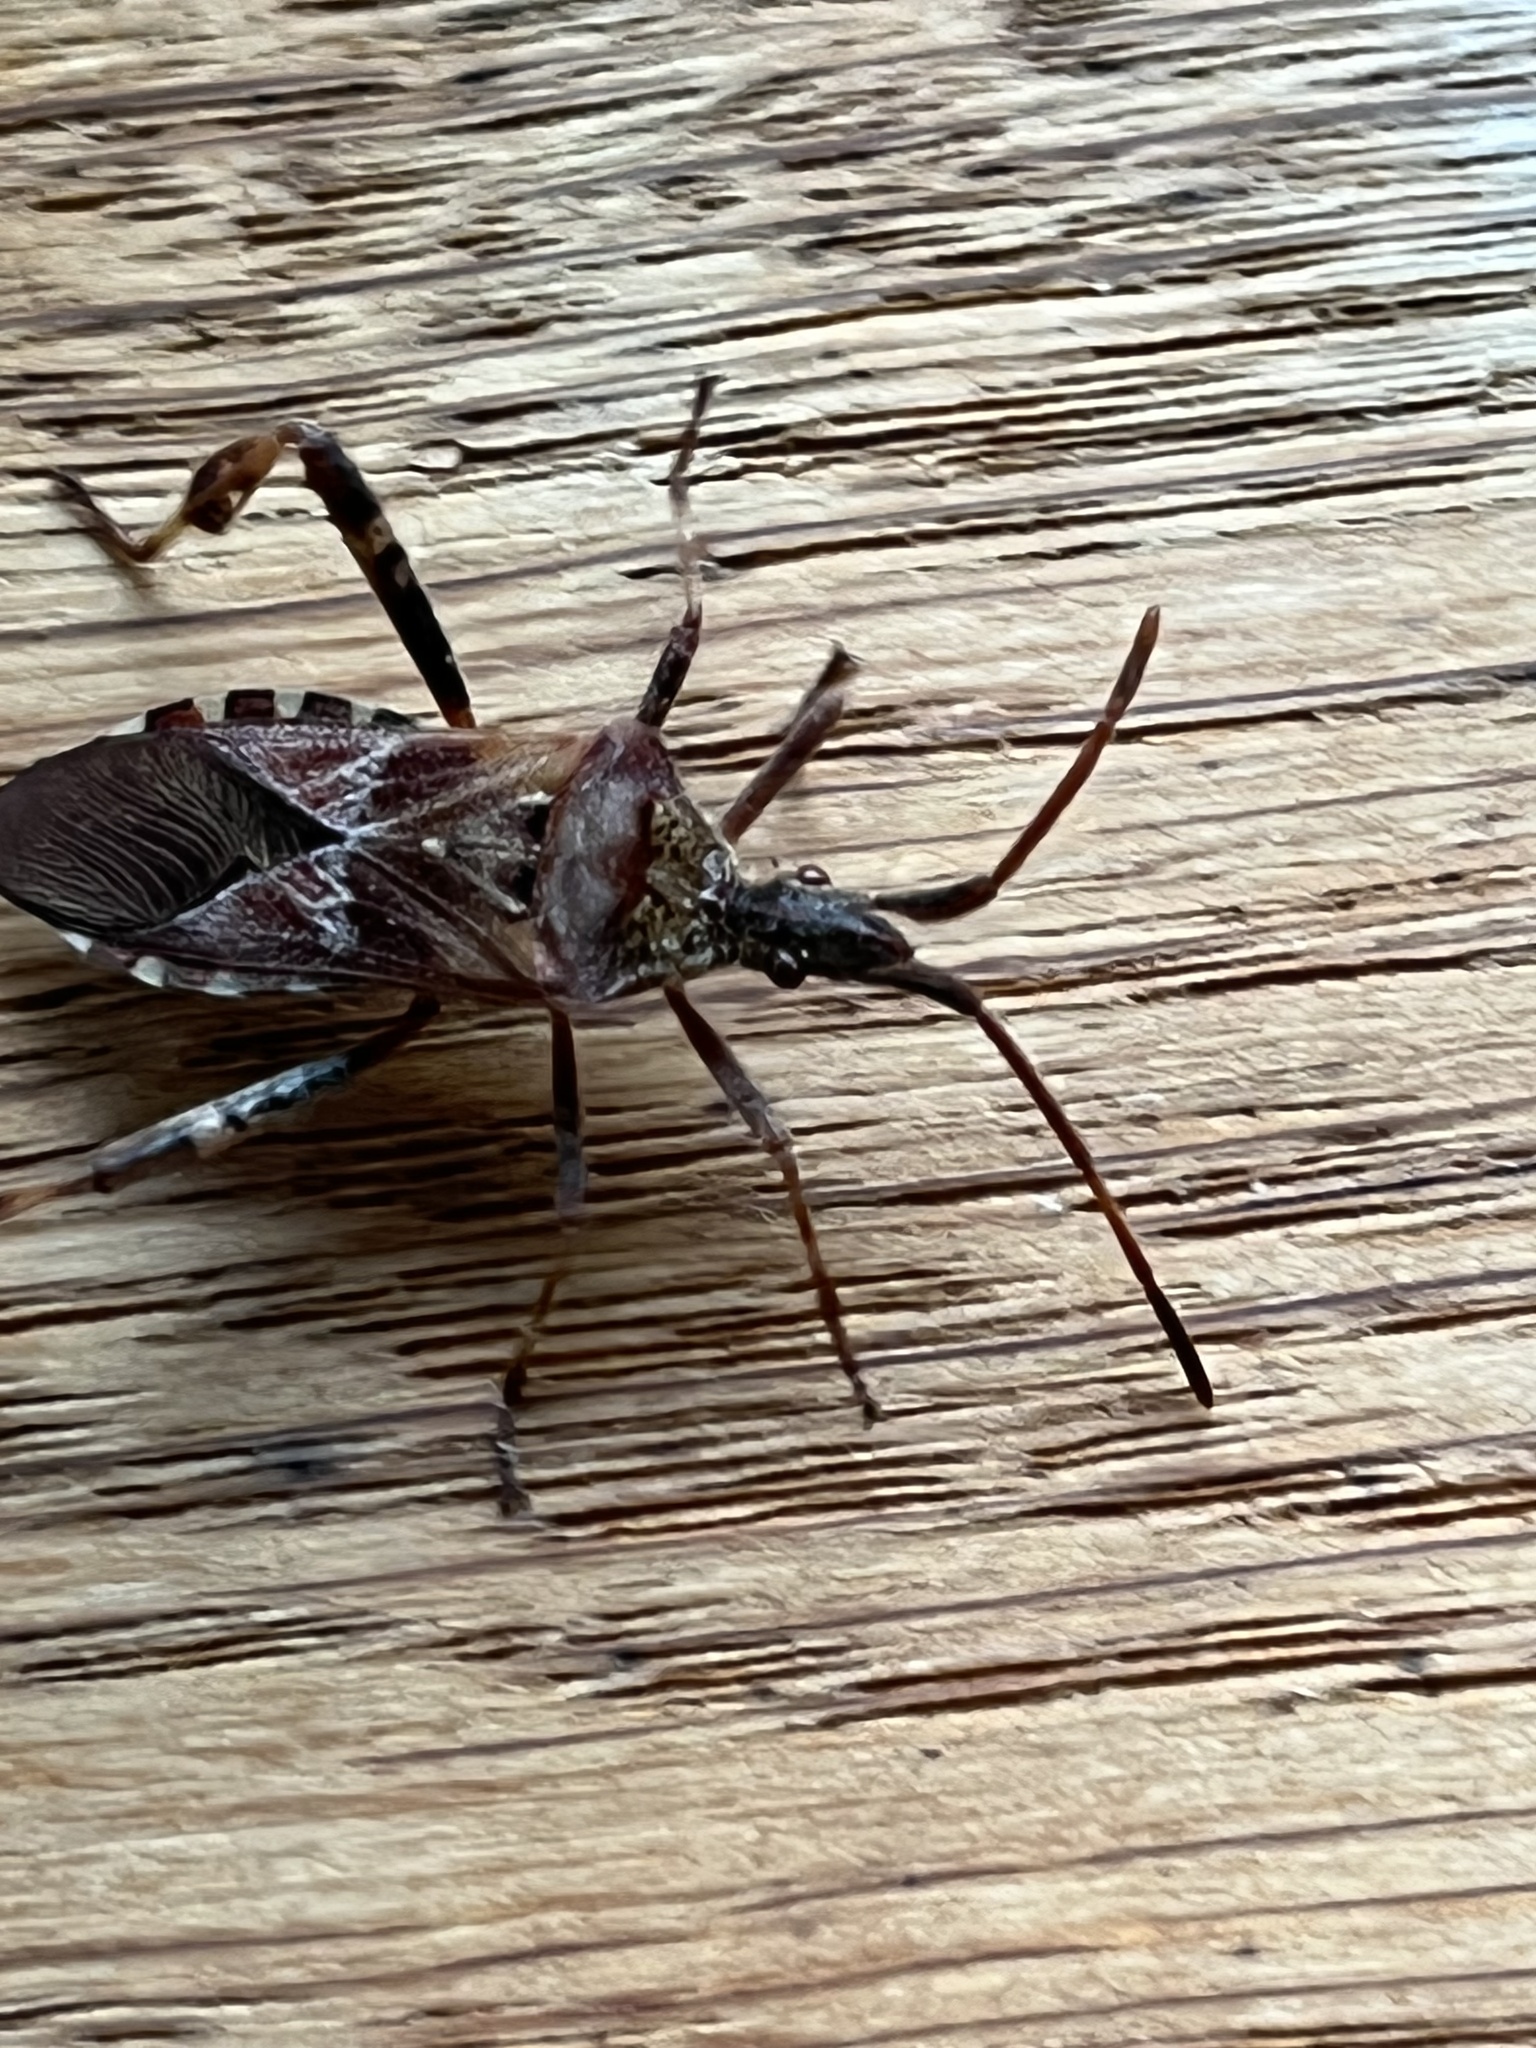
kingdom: Animalia
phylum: Arthropoda
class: Insecta
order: Hemiptera
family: Coreidae
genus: Leptoglossus
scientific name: Leptoglossus occidentalis
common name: Western conifer-seed bug
